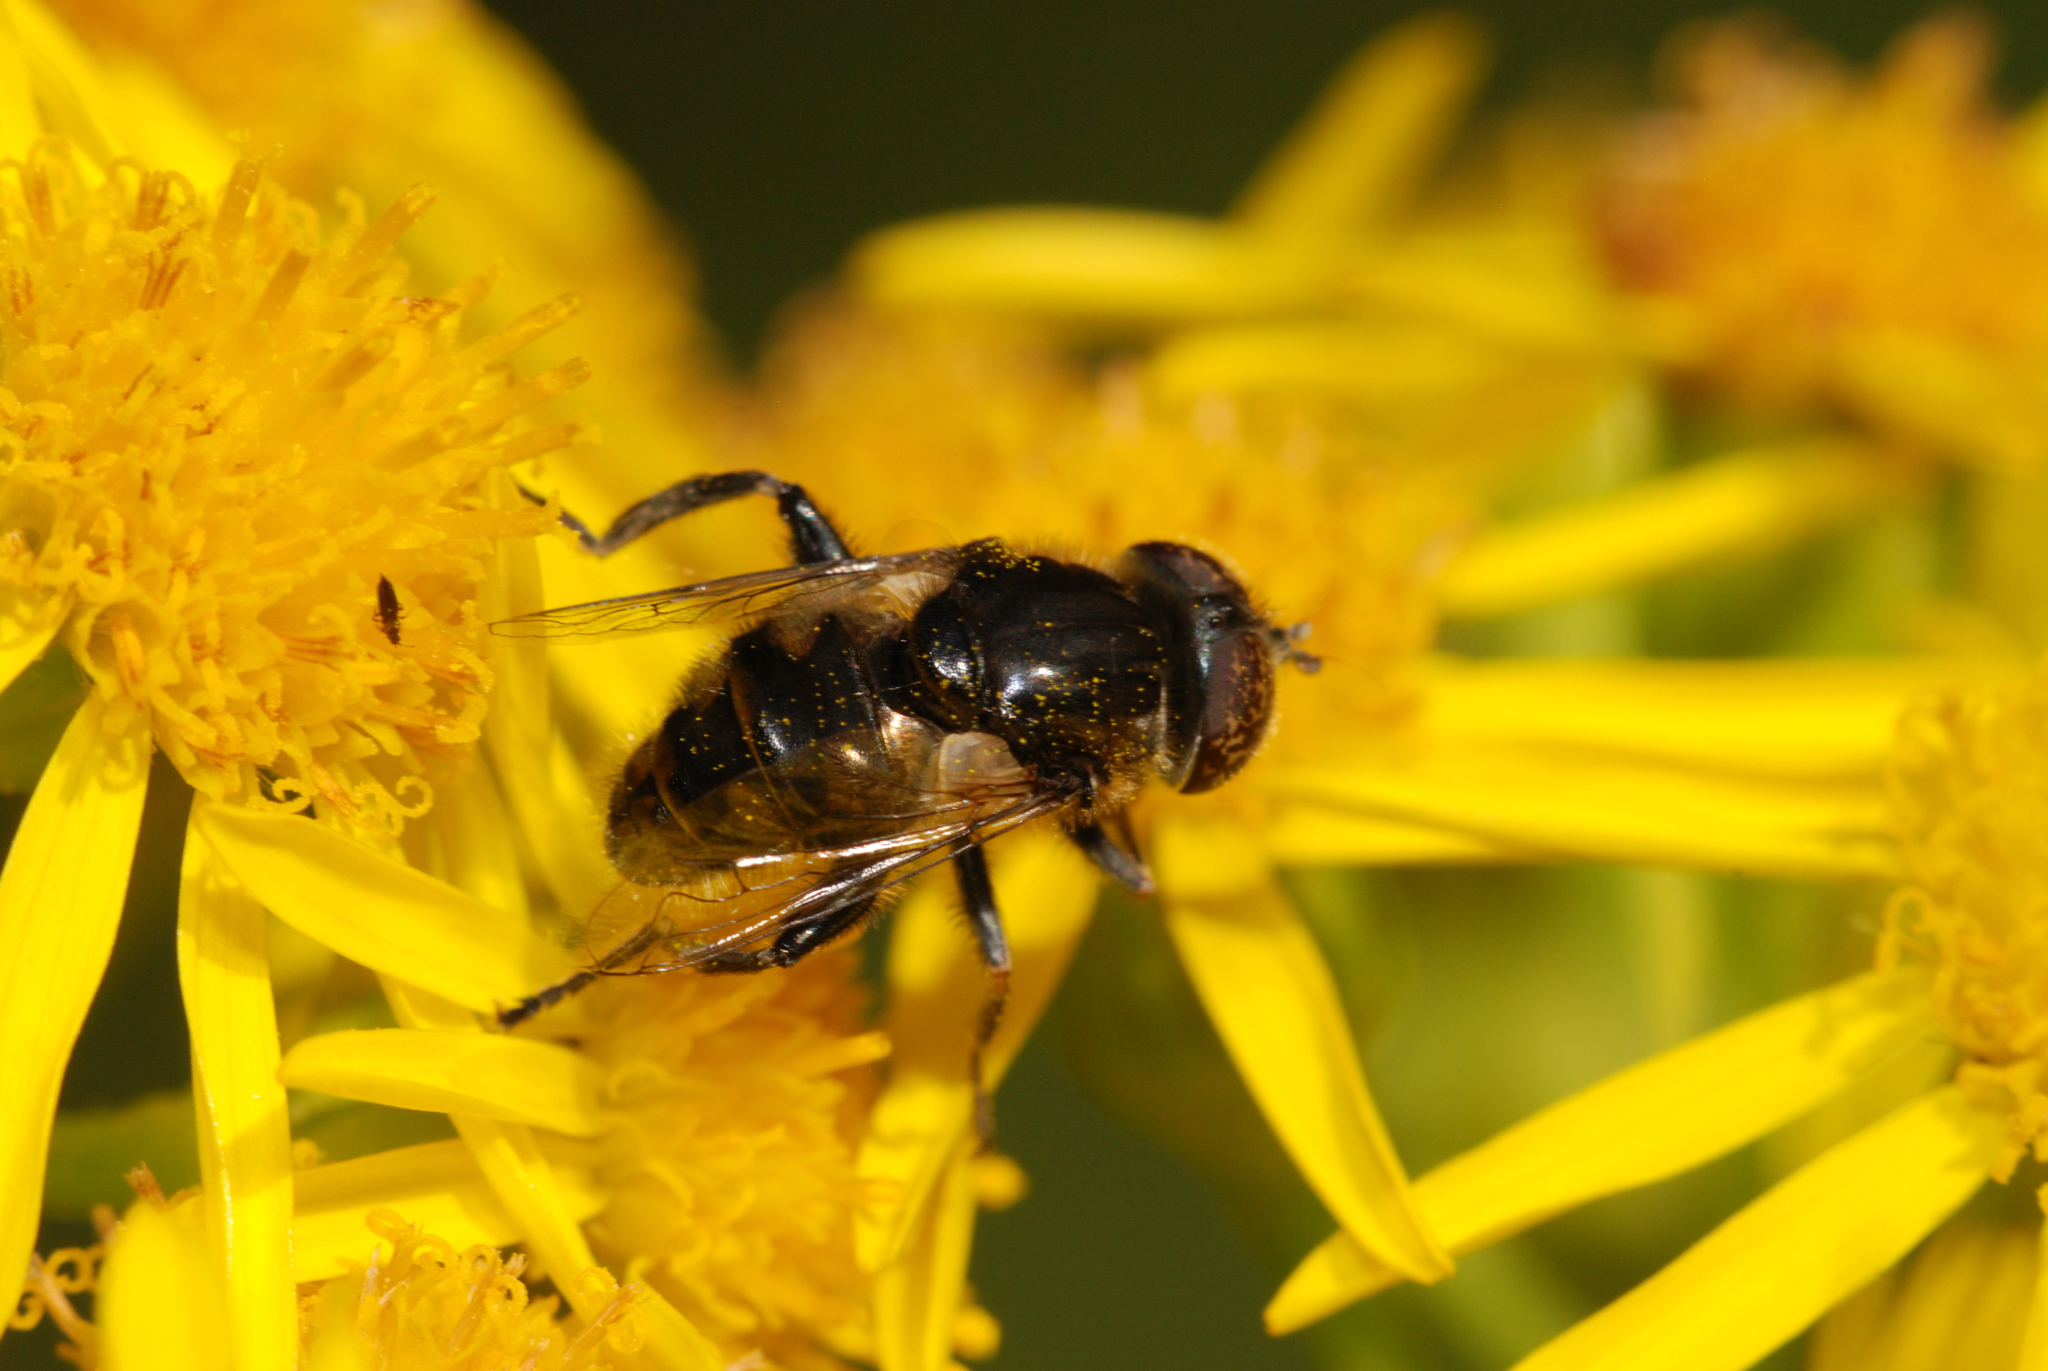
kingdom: Animalia
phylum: Arthropoda
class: Insecta
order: Diptera
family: Syrphidae
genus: Eristalinus
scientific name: Eristalinus sepulchralis
